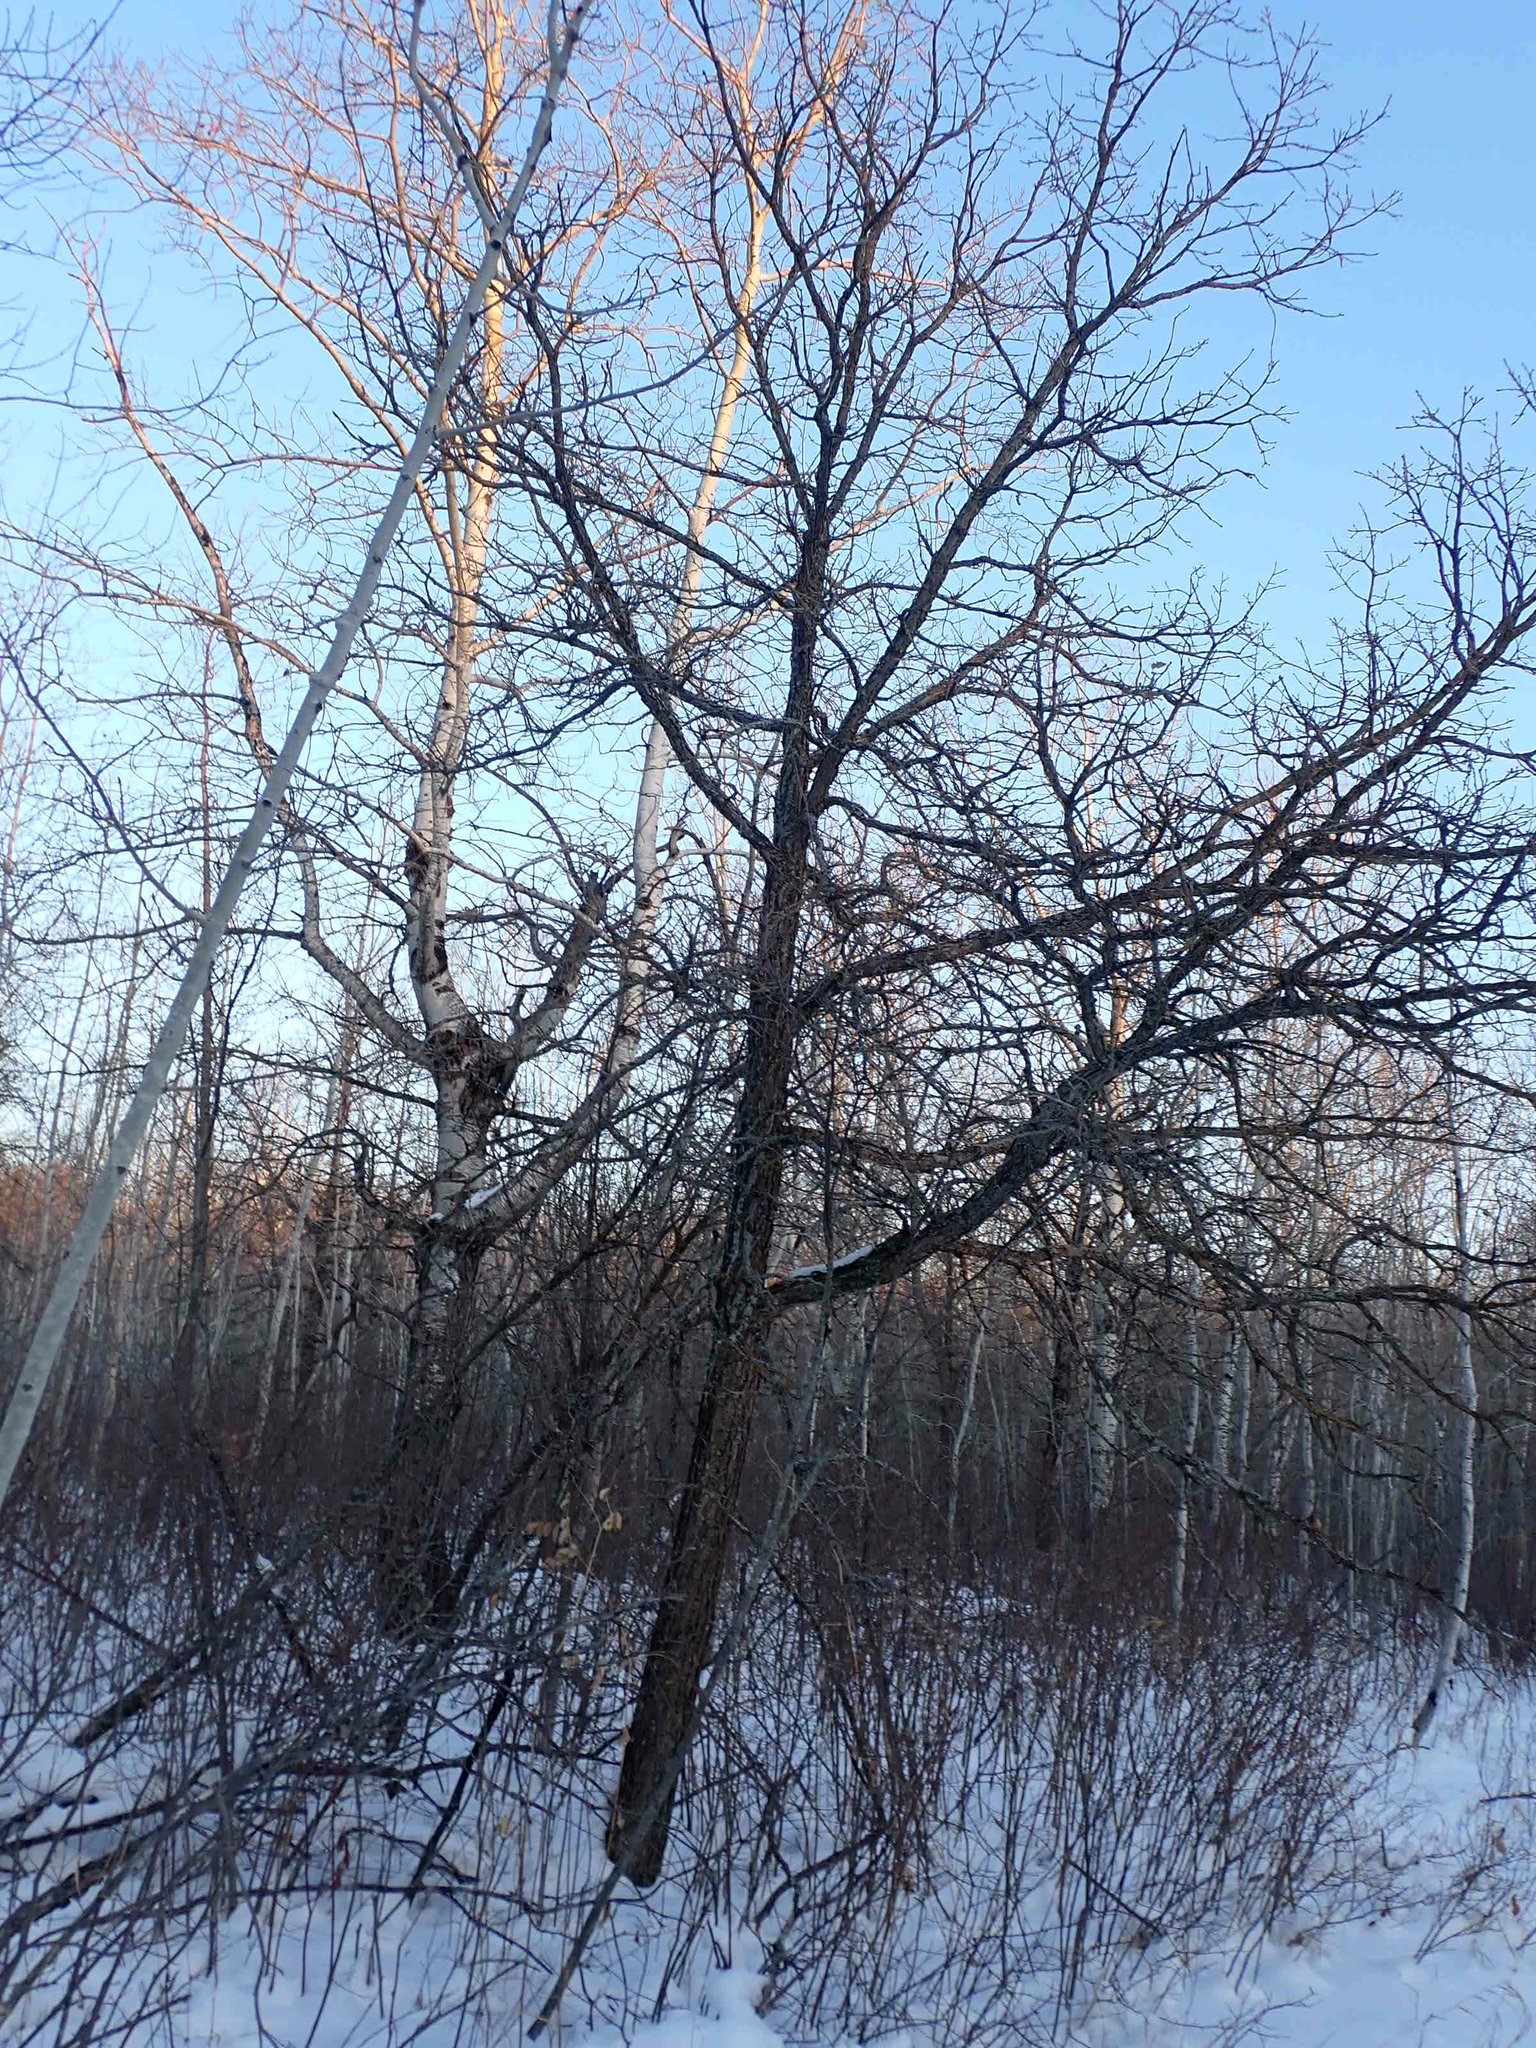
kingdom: Plantae
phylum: Tracheophyta
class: Magnoliopsida
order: Fagales
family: Fagaceae
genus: Quercus
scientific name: Quercus macrocarpa
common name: Bur oak
